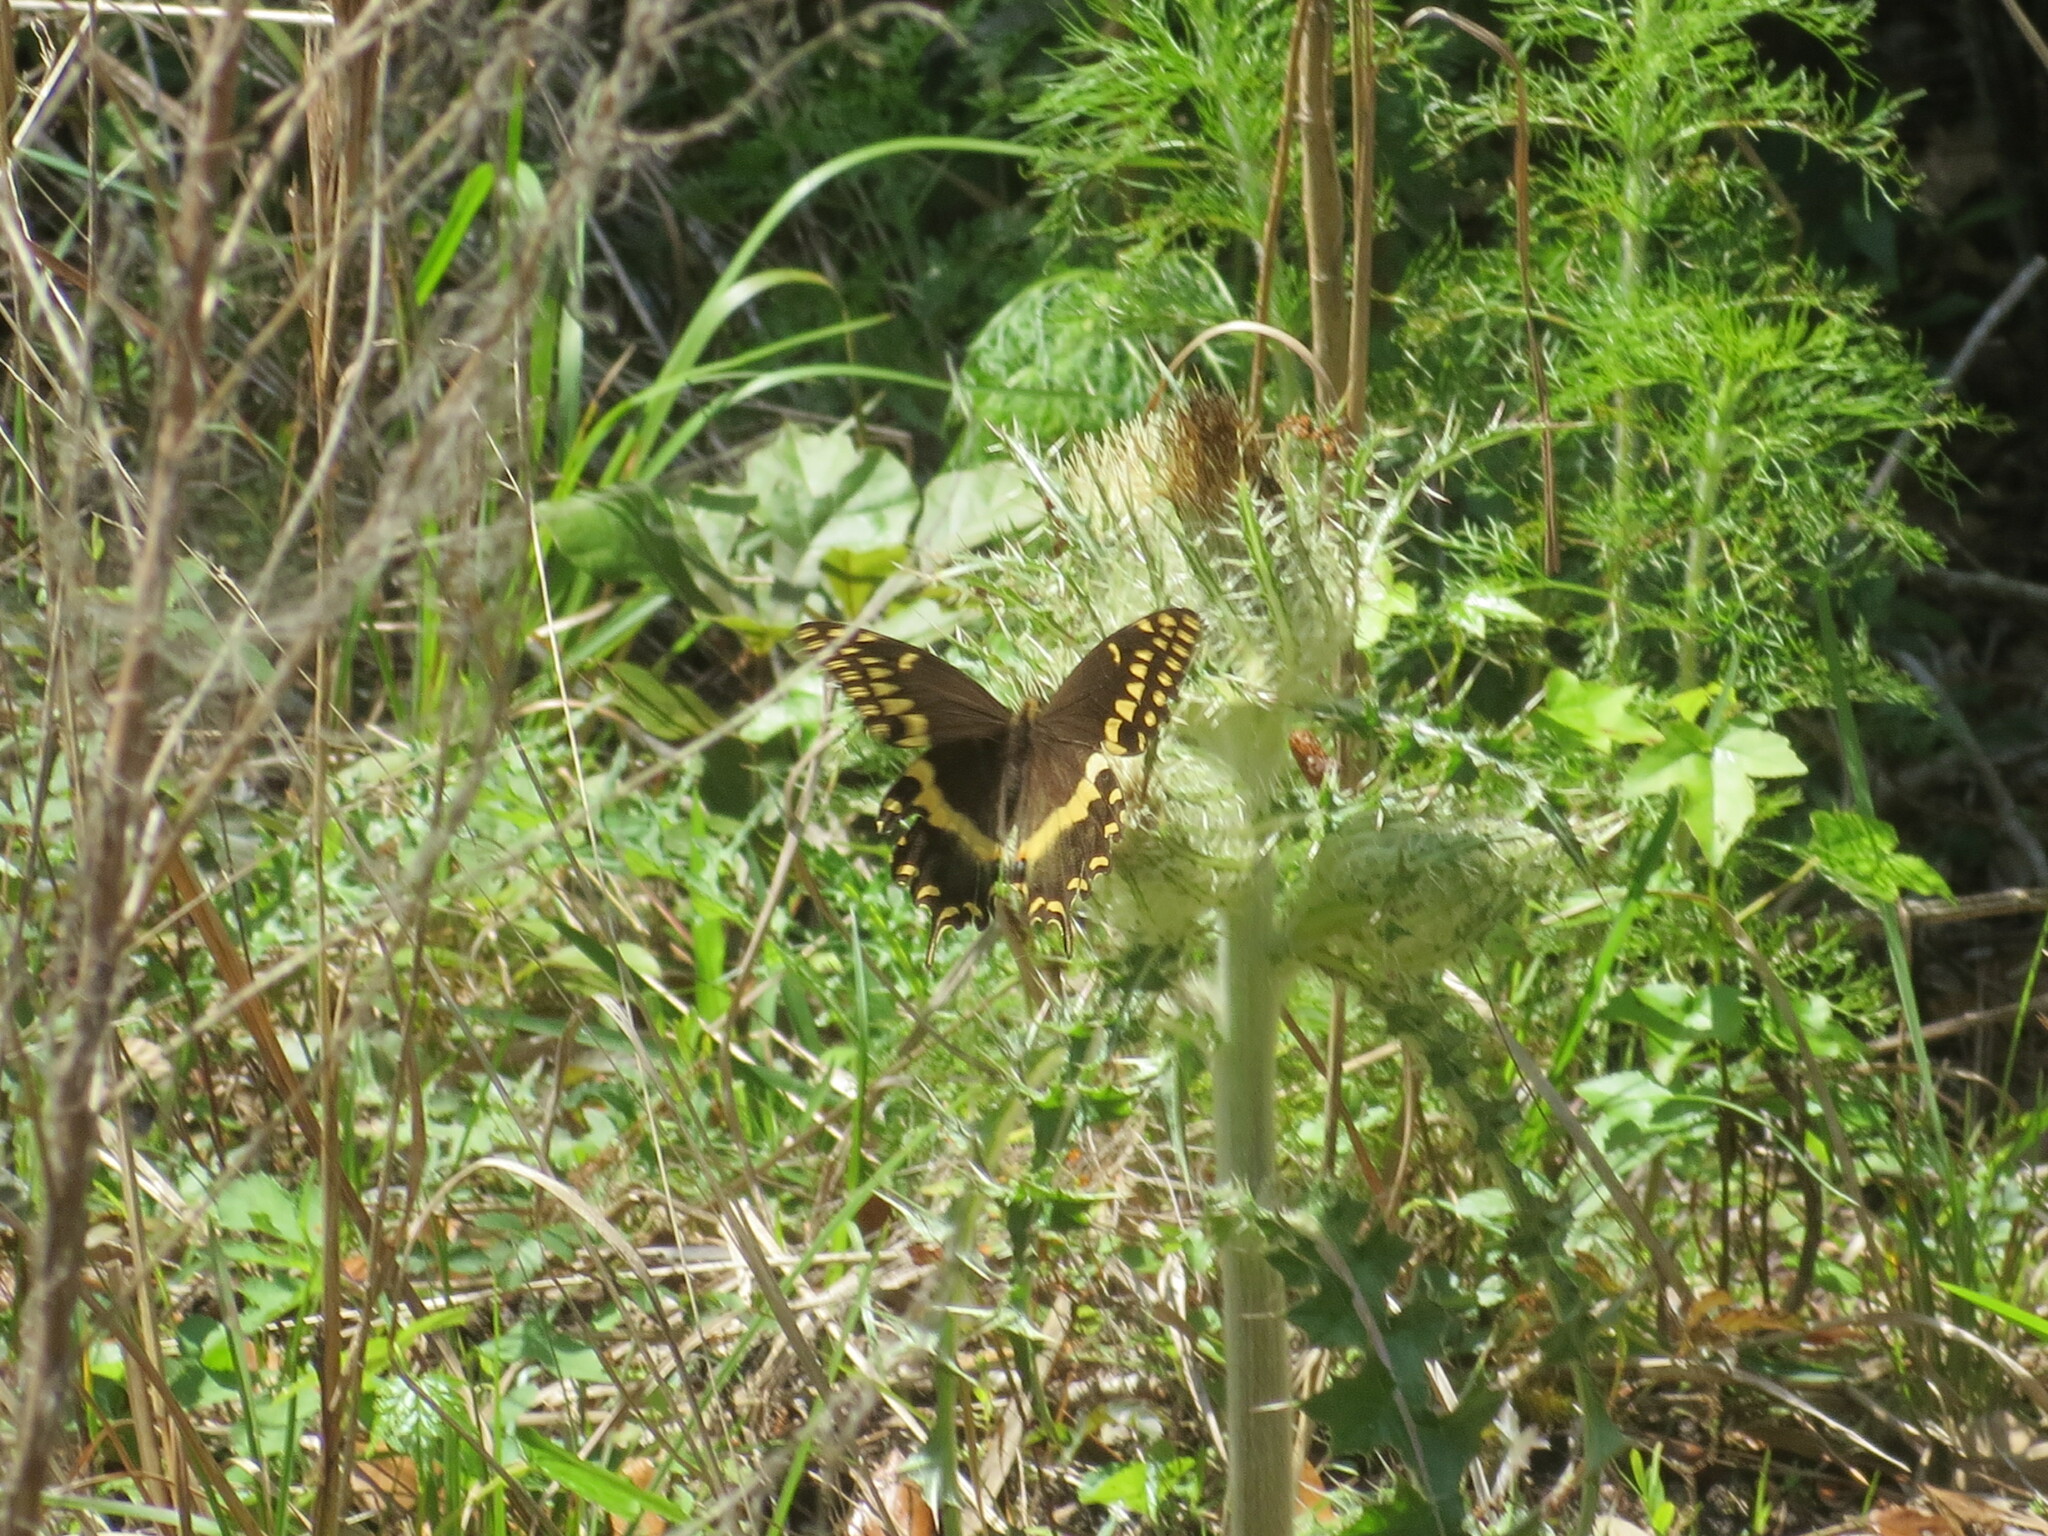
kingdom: Animalia
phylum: Arthropoda
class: Insecta
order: Lepidoptera
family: Papilionidae
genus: Papilio
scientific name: Papilio palamedes
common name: Palamedes swallowtail
